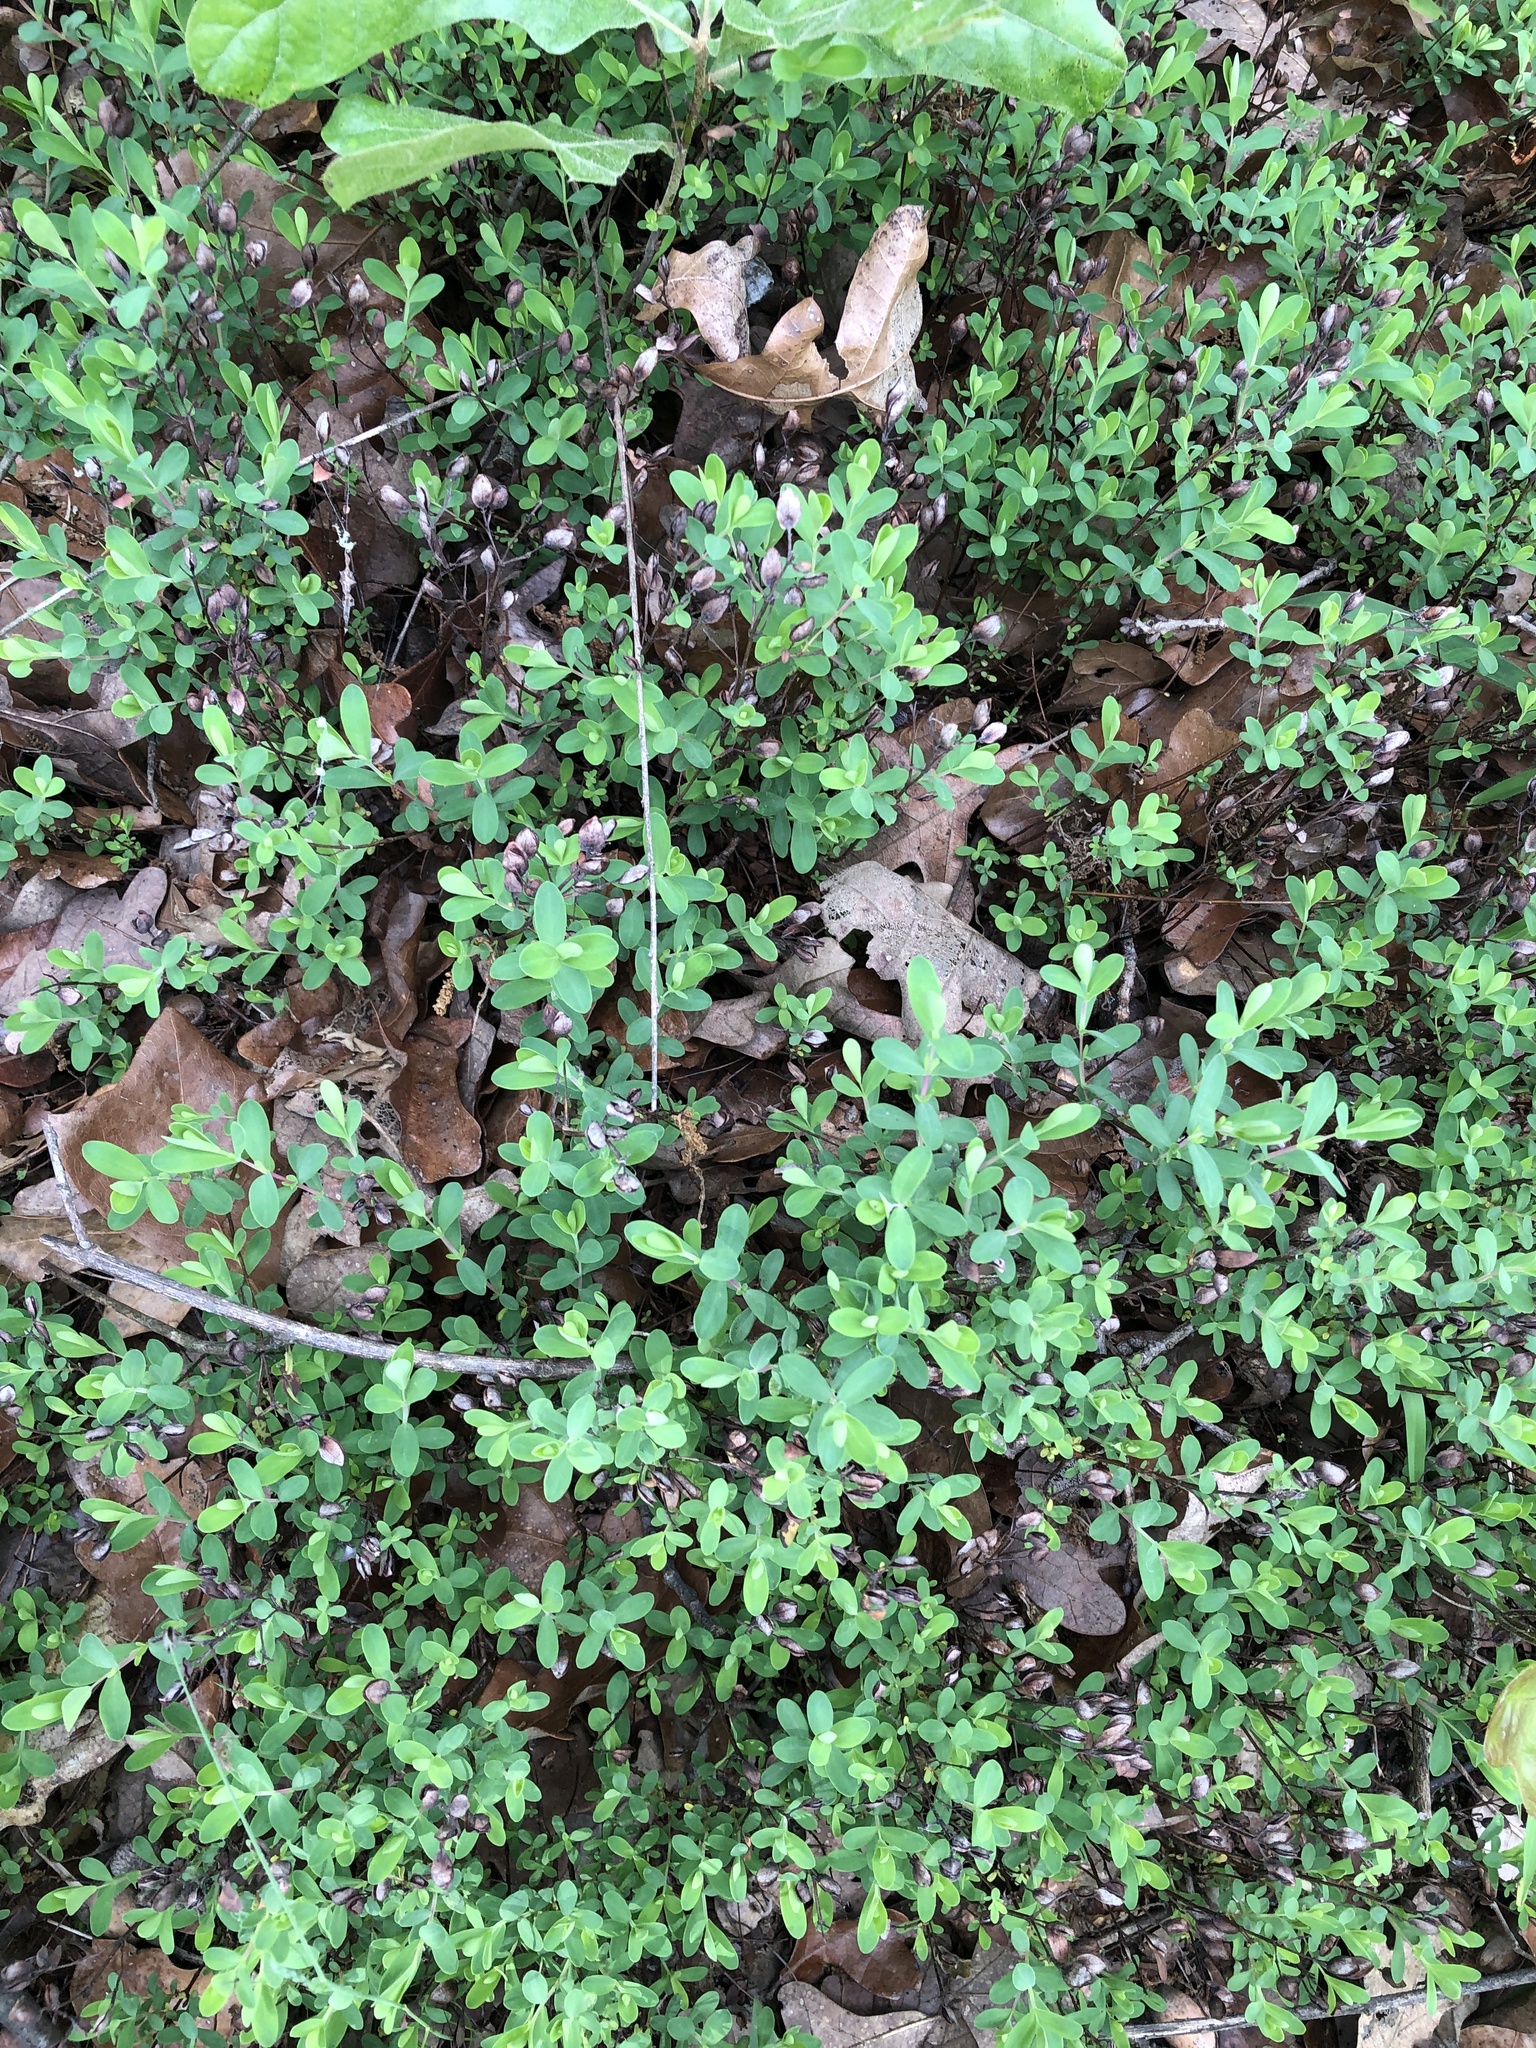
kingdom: Plantae
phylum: Tracheophyta
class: Magnoliopsida
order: Malpighiales
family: Hypericaceae
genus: Hypericum
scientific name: Hypericum hypericoides
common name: St. andrew's cross
